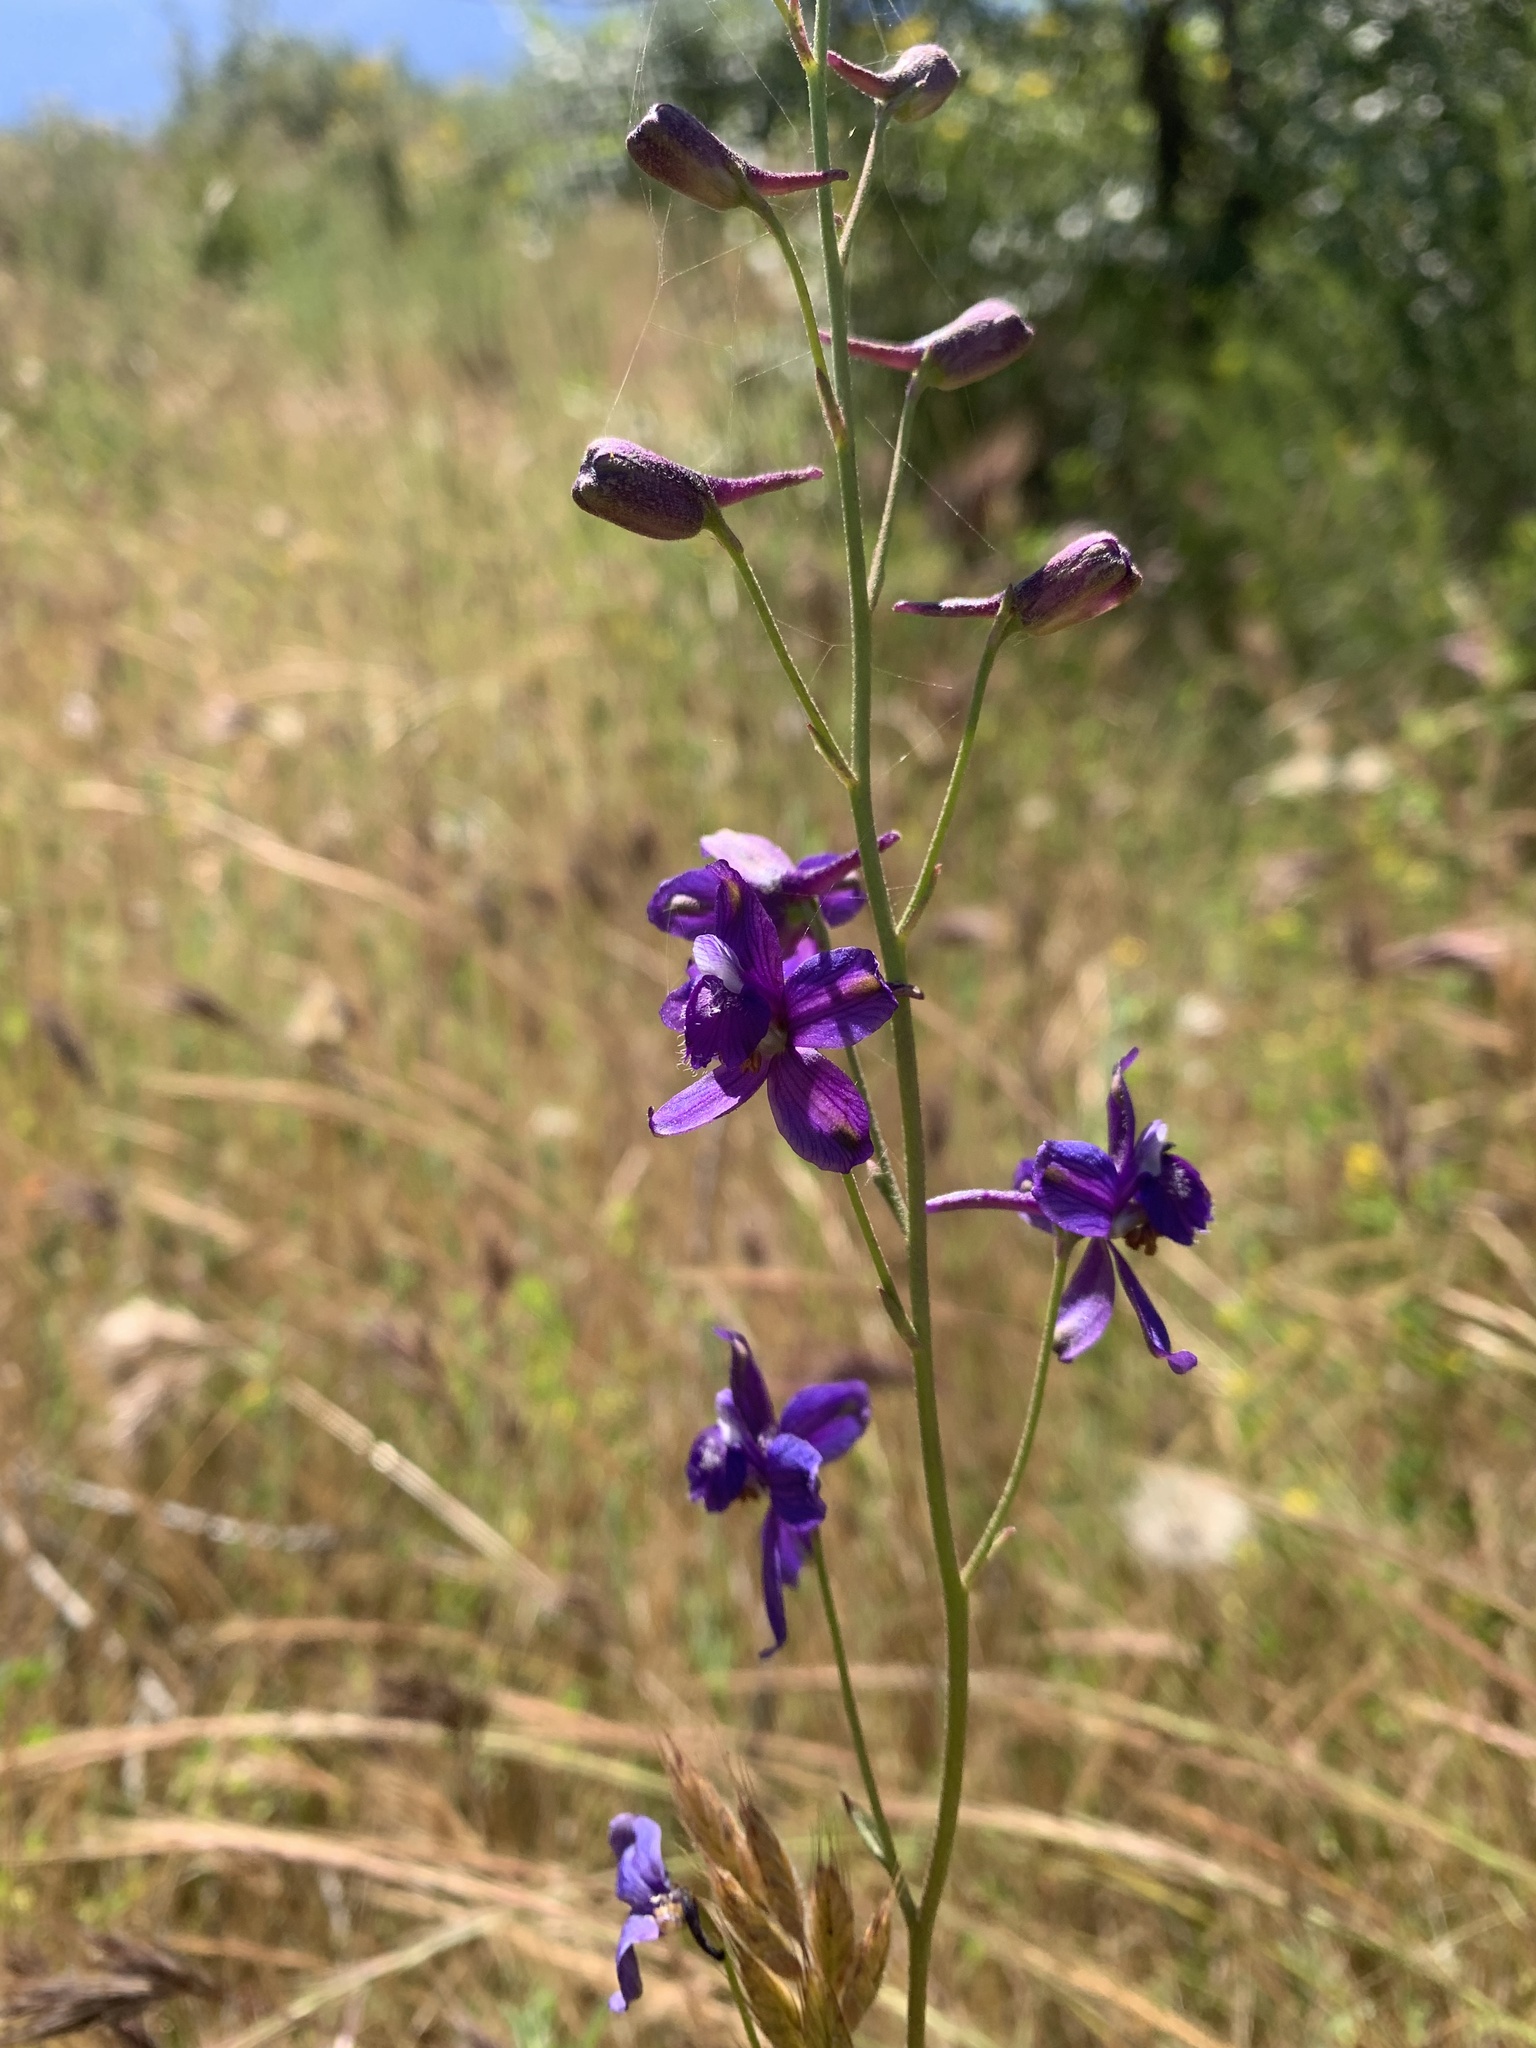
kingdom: Plantae
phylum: Tracheophyta
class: Magnoliopsida
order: Ranunculales
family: Ranunculaceae
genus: Delphinium
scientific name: Delphinium parryi
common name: Parry's larkspur
